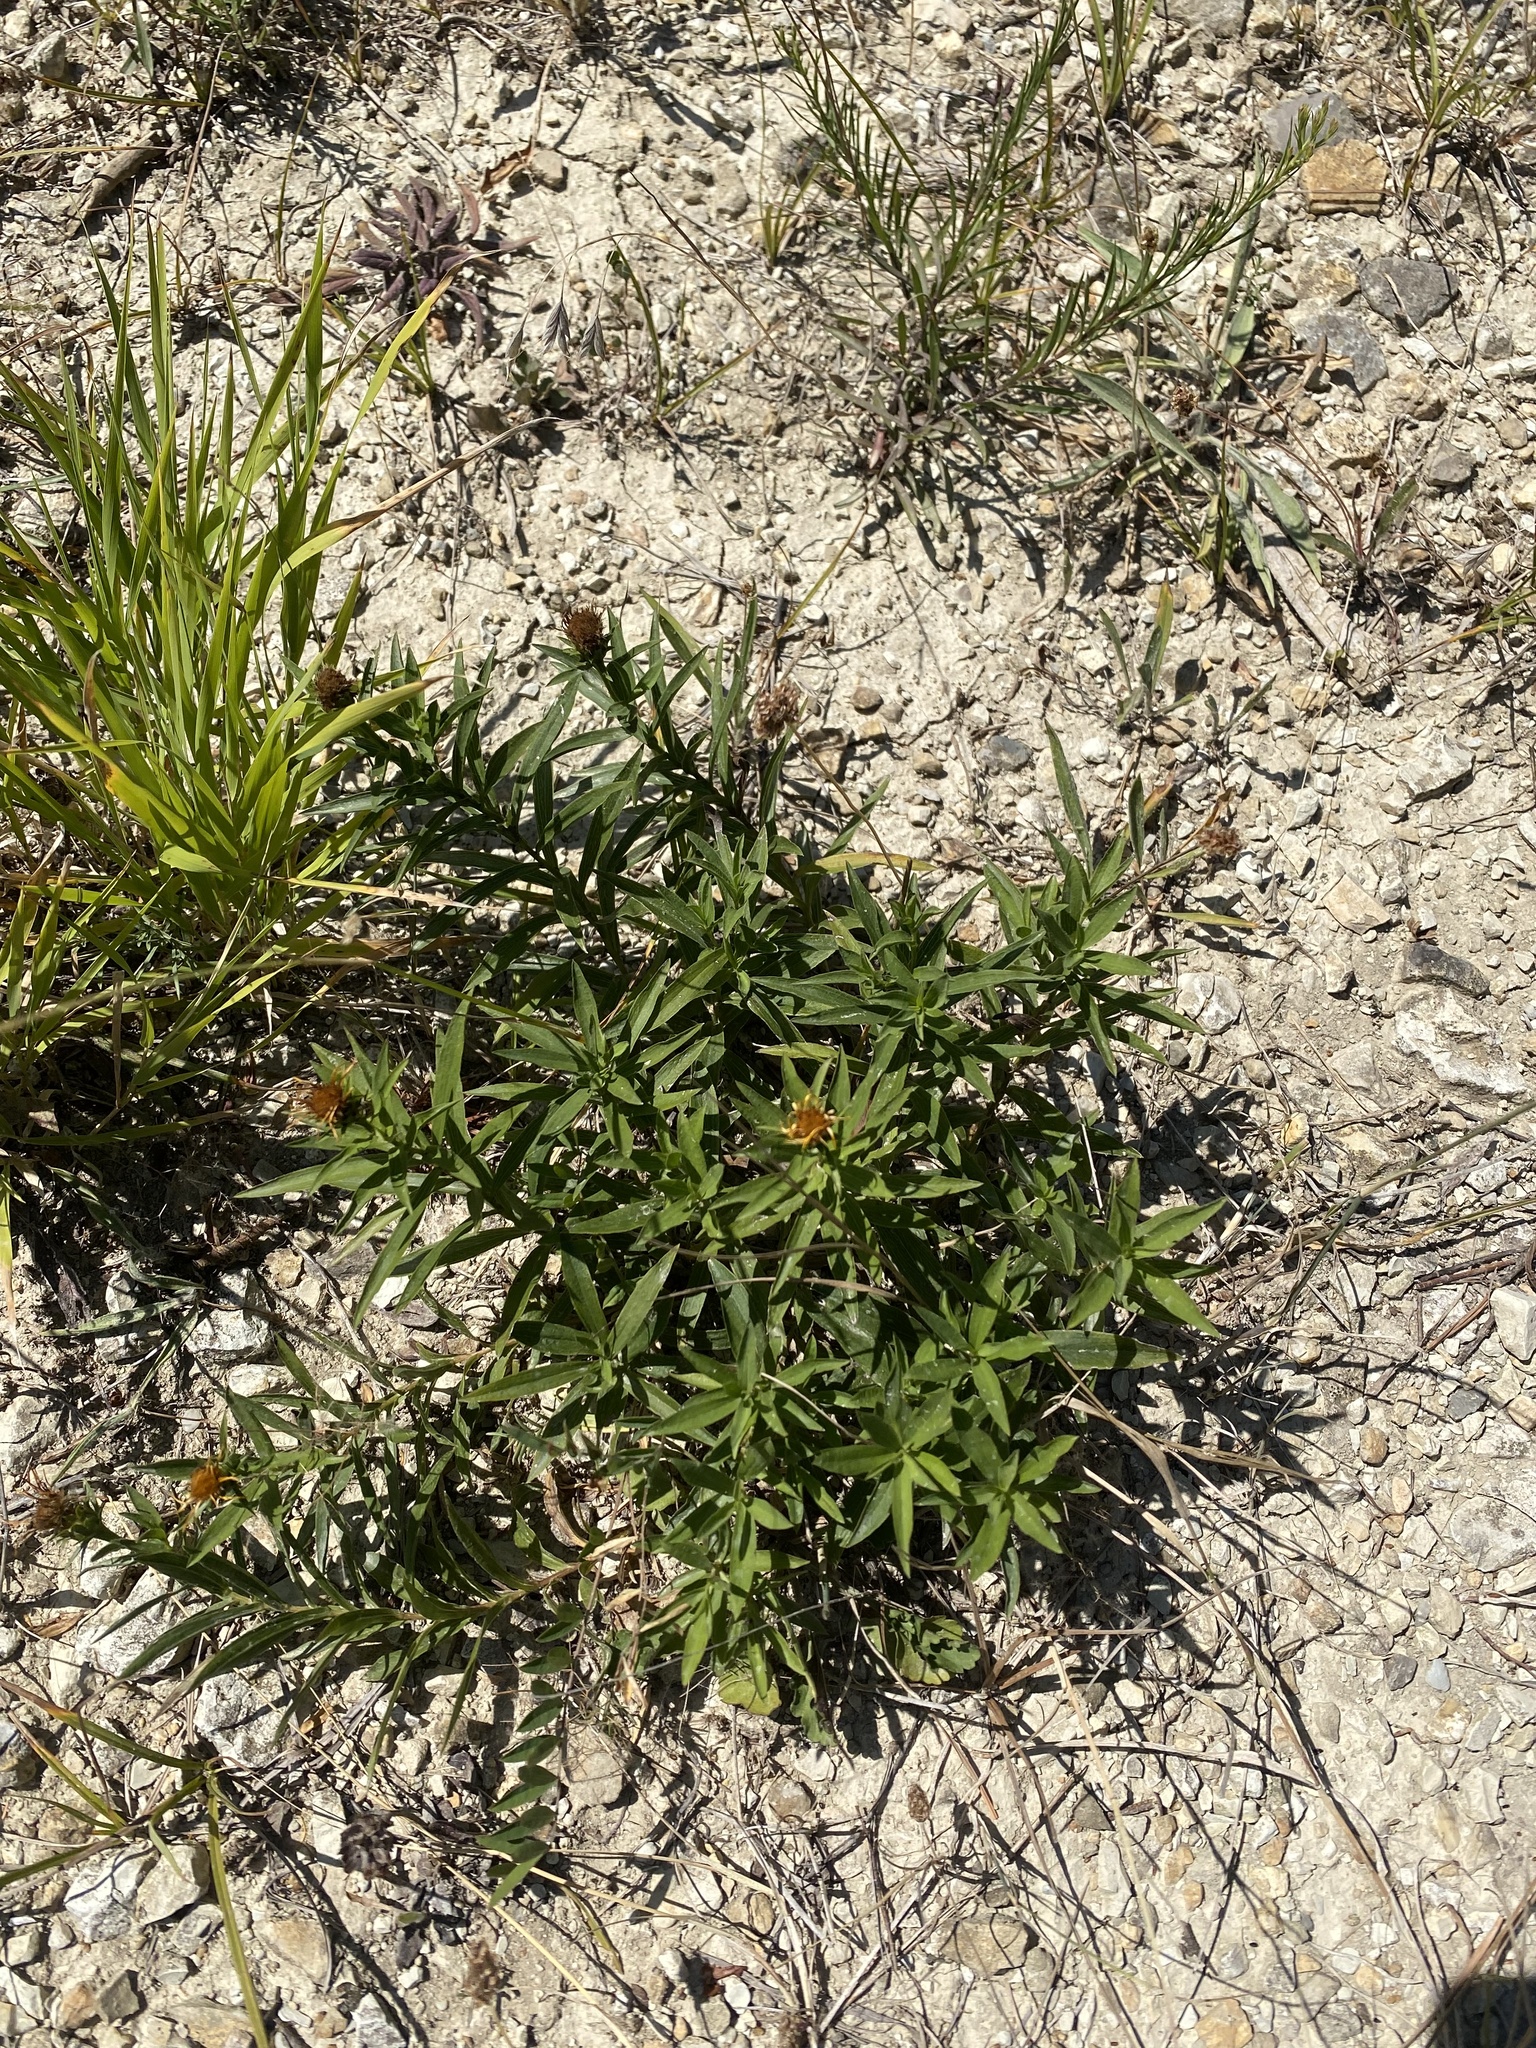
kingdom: Plantae
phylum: Tracheophyta
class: Magnoliopsida
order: Asterales
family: Asteraceae
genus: Pentanema
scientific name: Pentanema ensifolium
